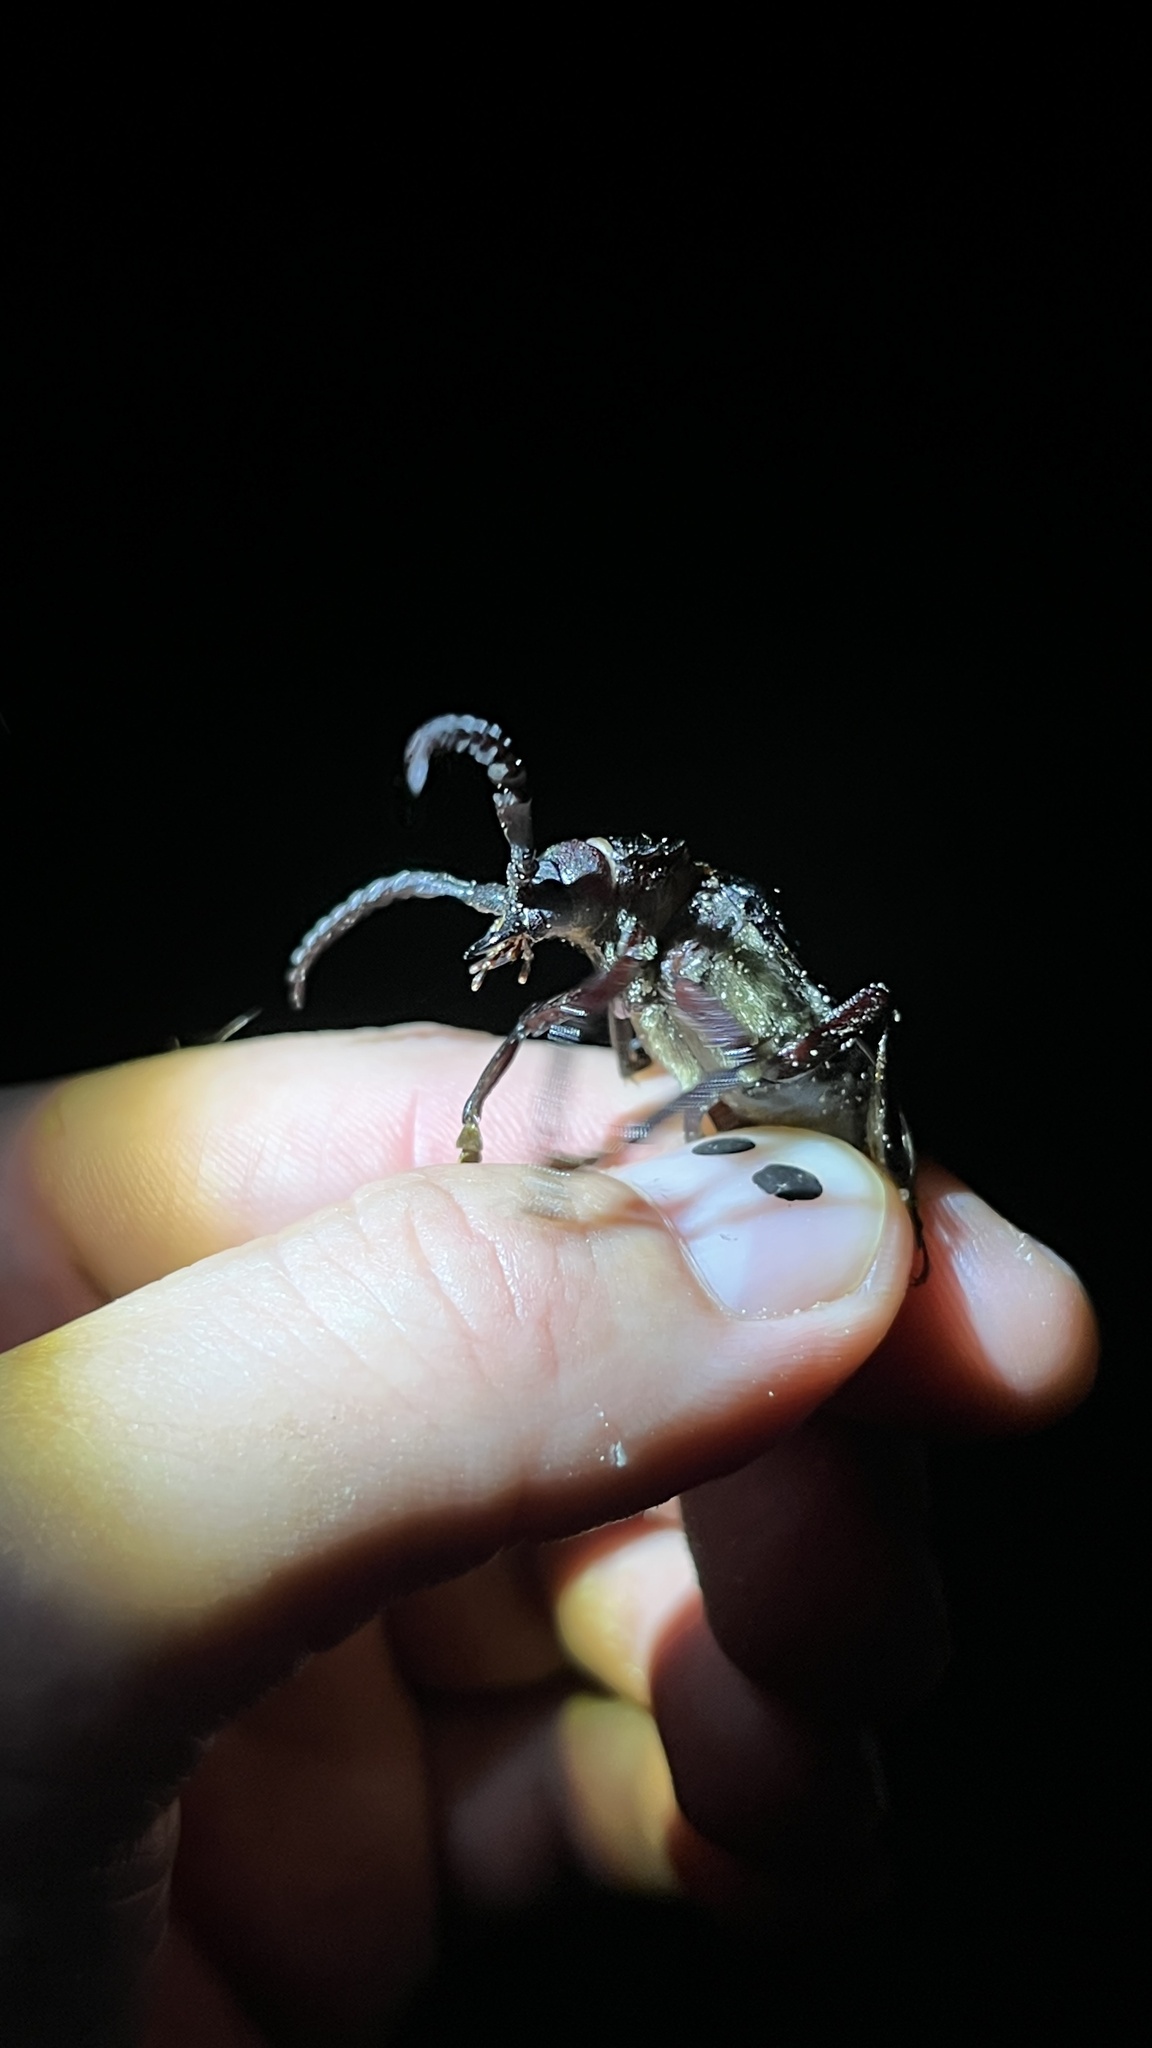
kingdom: Animalia
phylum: Arthropoda
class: Insecta
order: Coleoptera
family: Cerambycidae
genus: Prionus
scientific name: Prionus coriarius
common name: Tanner beetle
